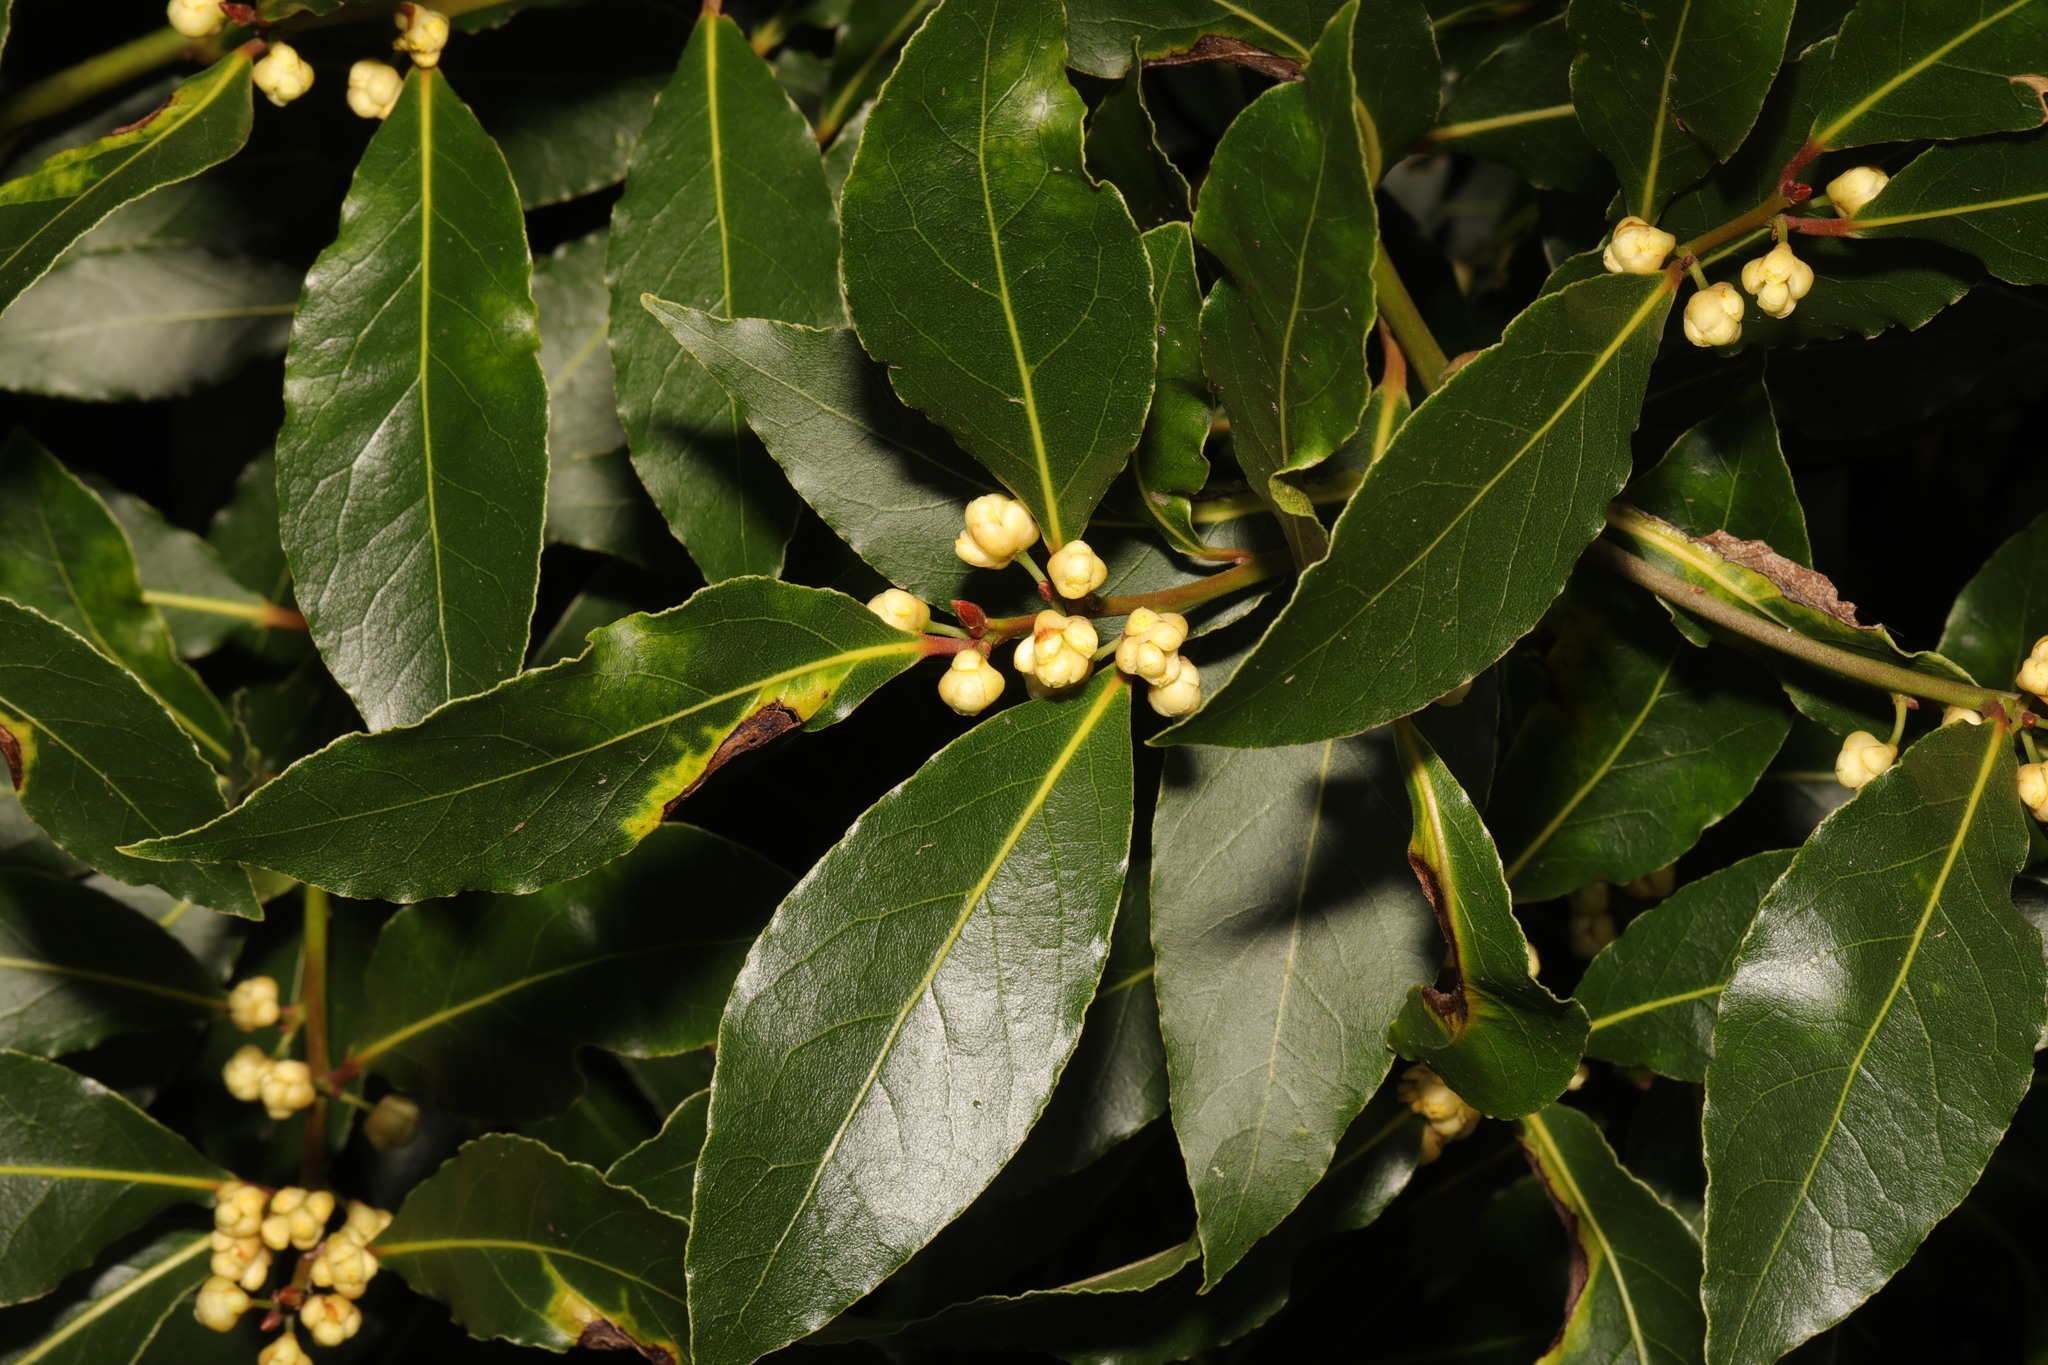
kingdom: Plantae
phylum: Tracheophyta
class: Magnoliopsida
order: Laurales
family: Lauraceae
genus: Laurus
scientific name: Laurus nobilis
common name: Bay
